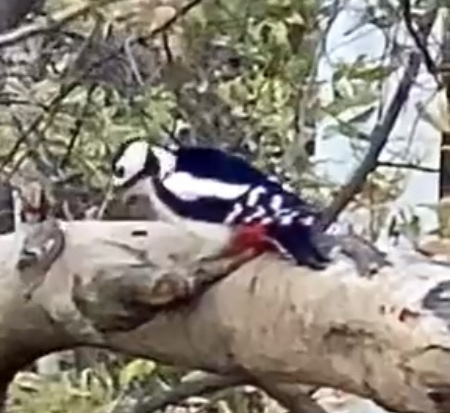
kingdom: Animalia
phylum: Chordata
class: Aves
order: Piciformes
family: Picidae
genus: Dendrocopos
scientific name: Dendrocopos major
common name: Great spotted woodpecker
